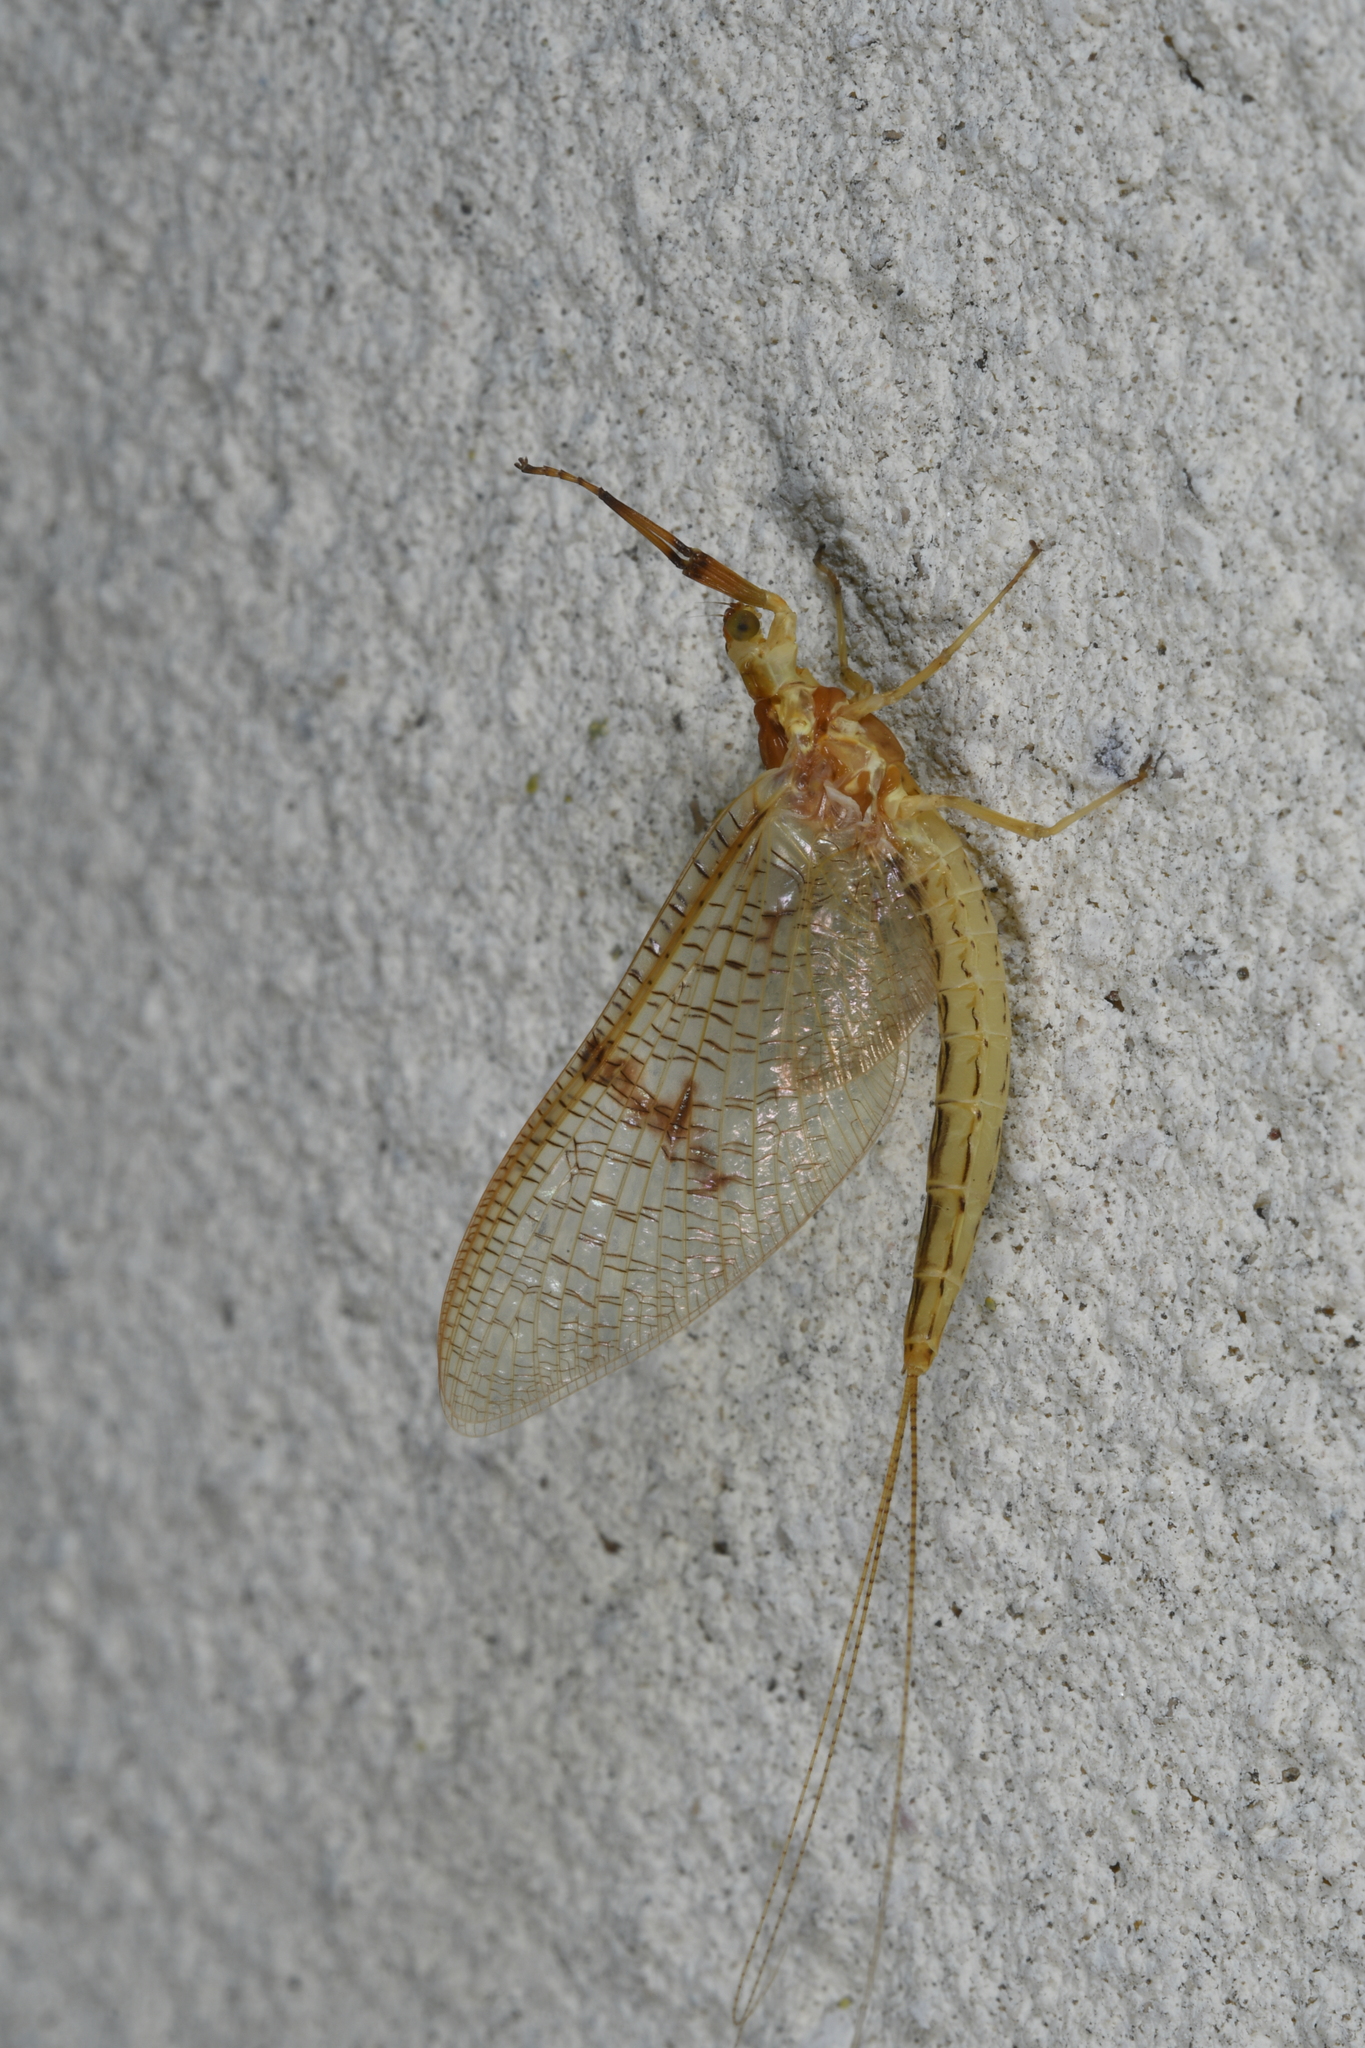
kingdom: Animalia
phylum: Arthropoda
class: Insecta
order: Ephemeroptera
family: Ephemeridae
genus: Ephemera
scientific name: Ephemera glaucops
